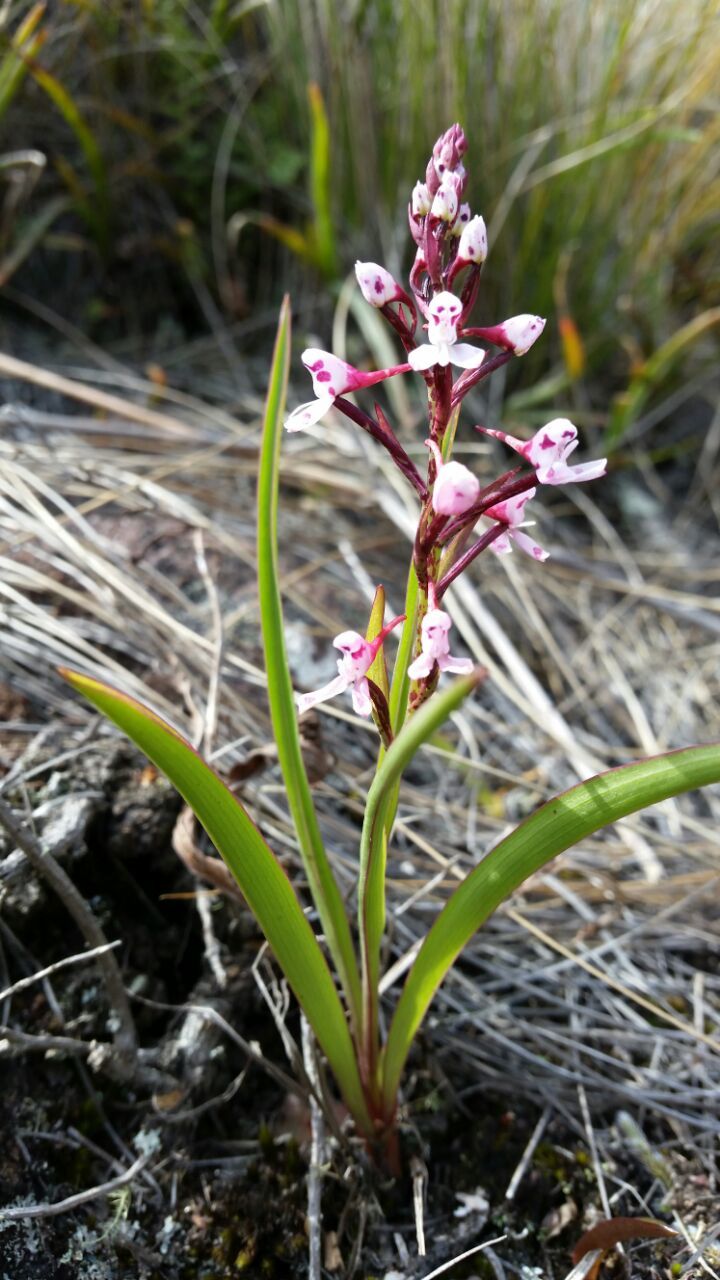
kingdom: Plantae
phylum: Tracheophyta
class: Liliopsida
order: Asparagales
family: Orchidaceae
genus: Disa
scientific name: Disa saxicola
